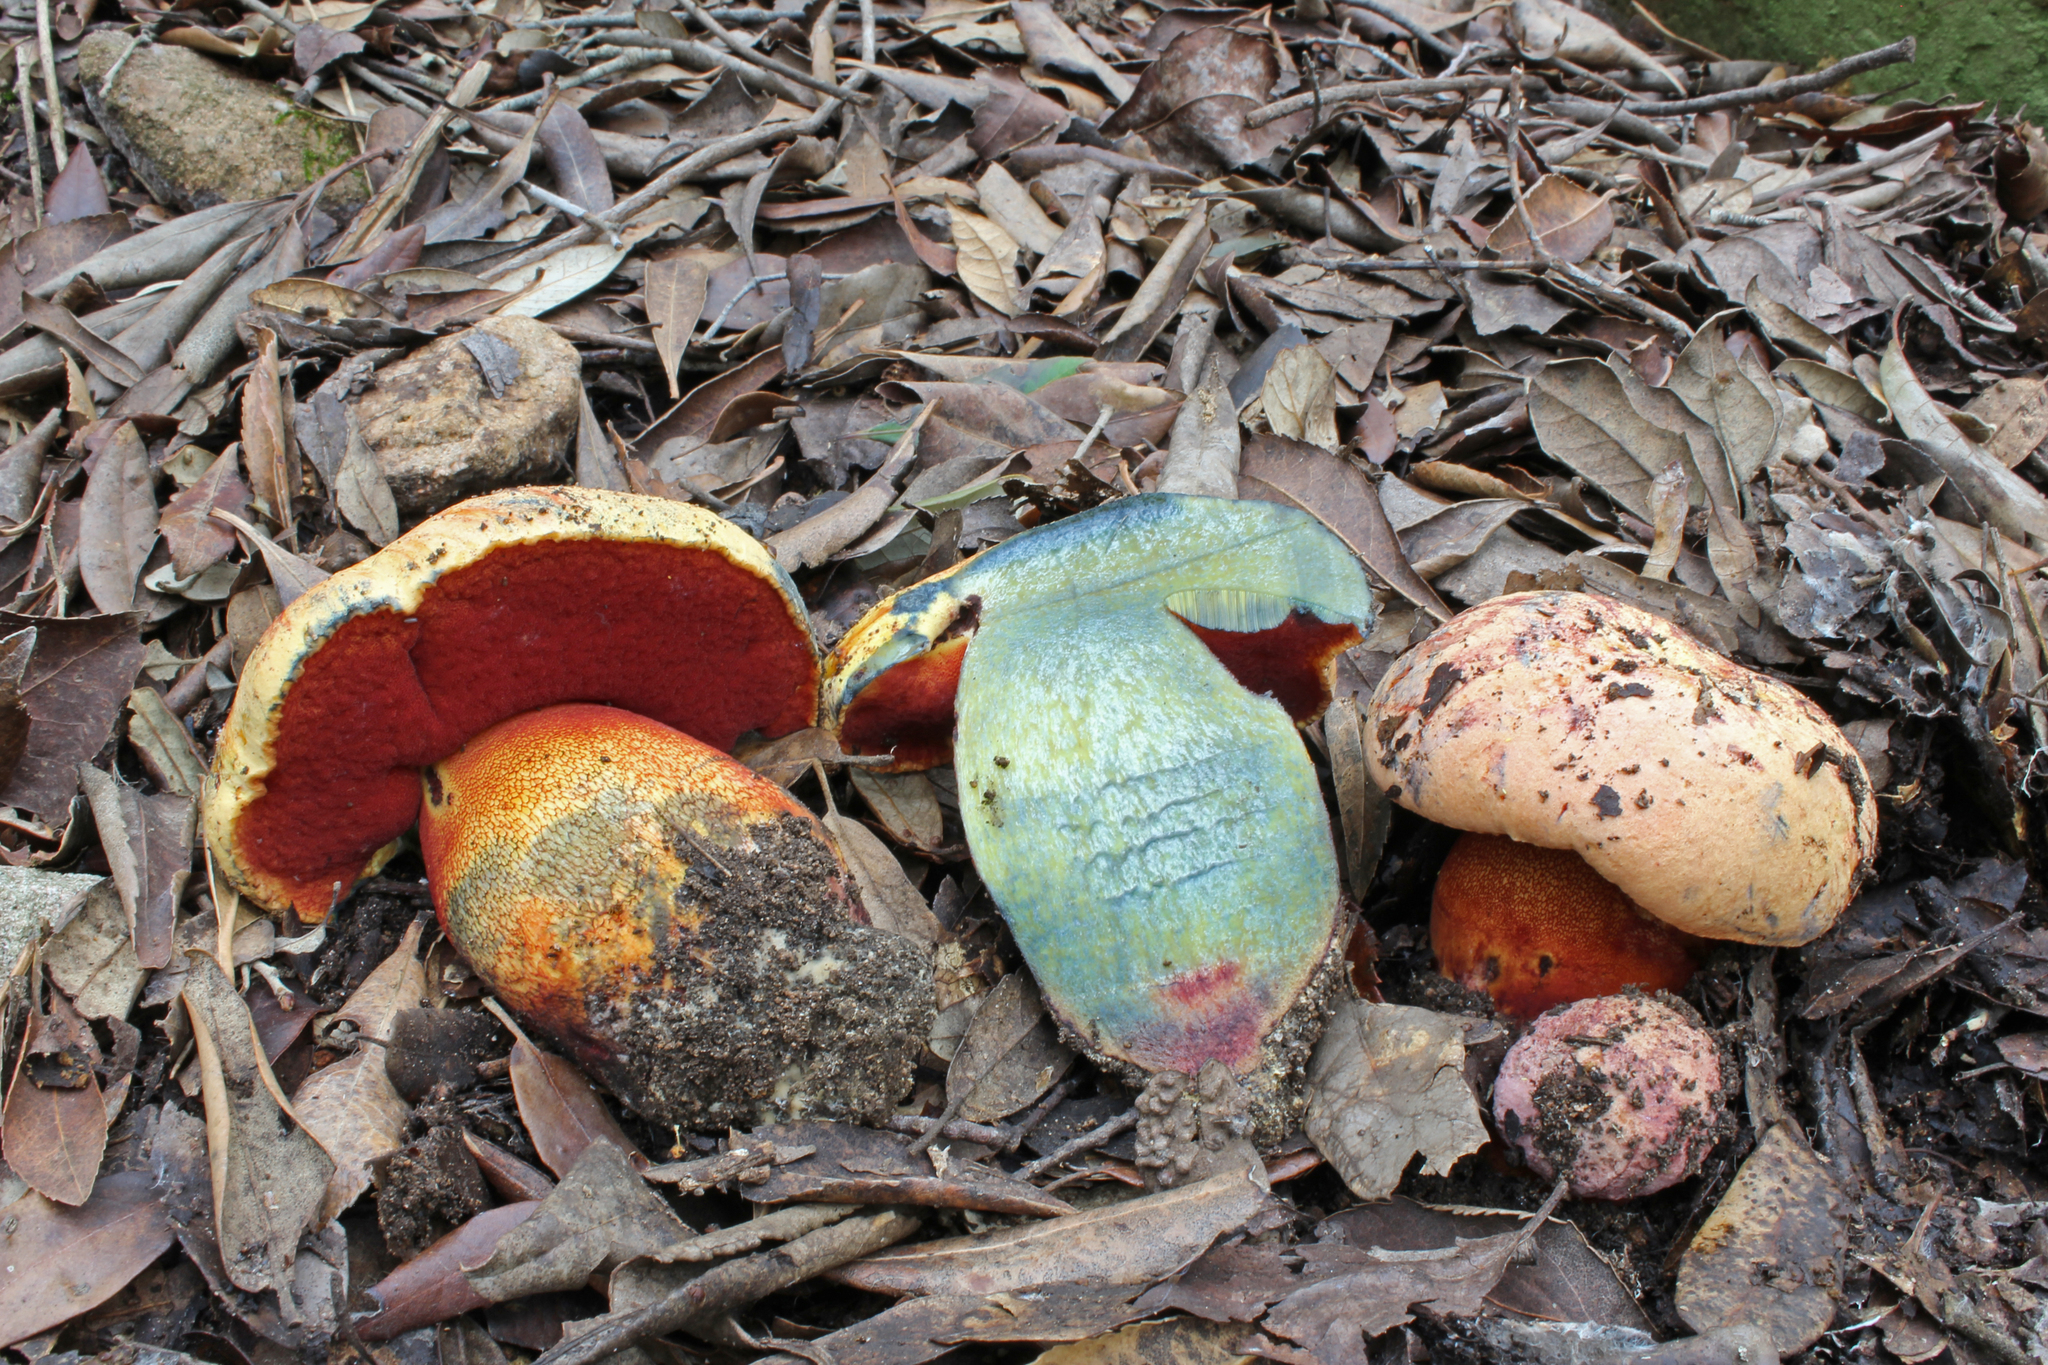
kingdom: Fungi
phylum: Basidiomycota
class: Agaricomycetes
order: Boletales
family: Boletaceae
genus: Imperator
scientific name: Imperator luteocupreus
